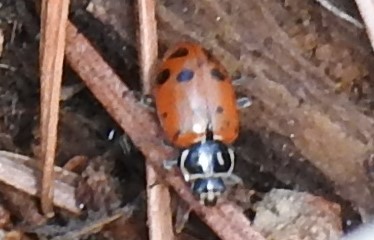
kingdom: Animalia
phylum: Arthropoda
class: Insecta
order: Coleoptera
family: Coccinellidae
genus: Hippodamia
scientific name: Hippodamia convergens
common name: Convergent lady beetle
